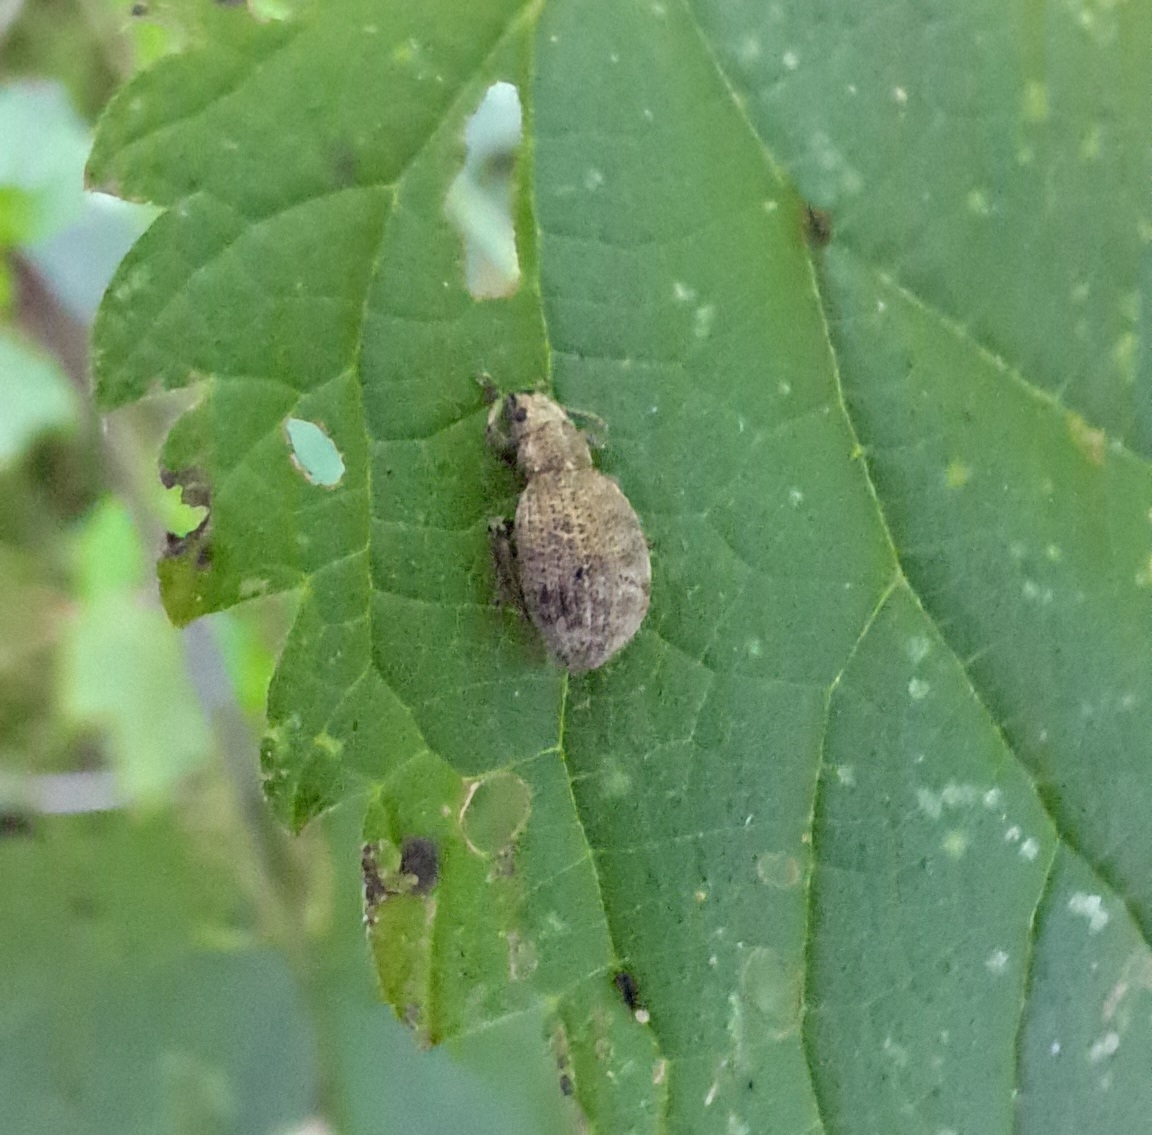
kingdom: Animalia
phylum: Arthropoda
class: Insecta
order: Coleoptera
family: Curculionidae
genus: Sciaphilus
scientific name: Sciaphilus asperatus
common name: Weevil
